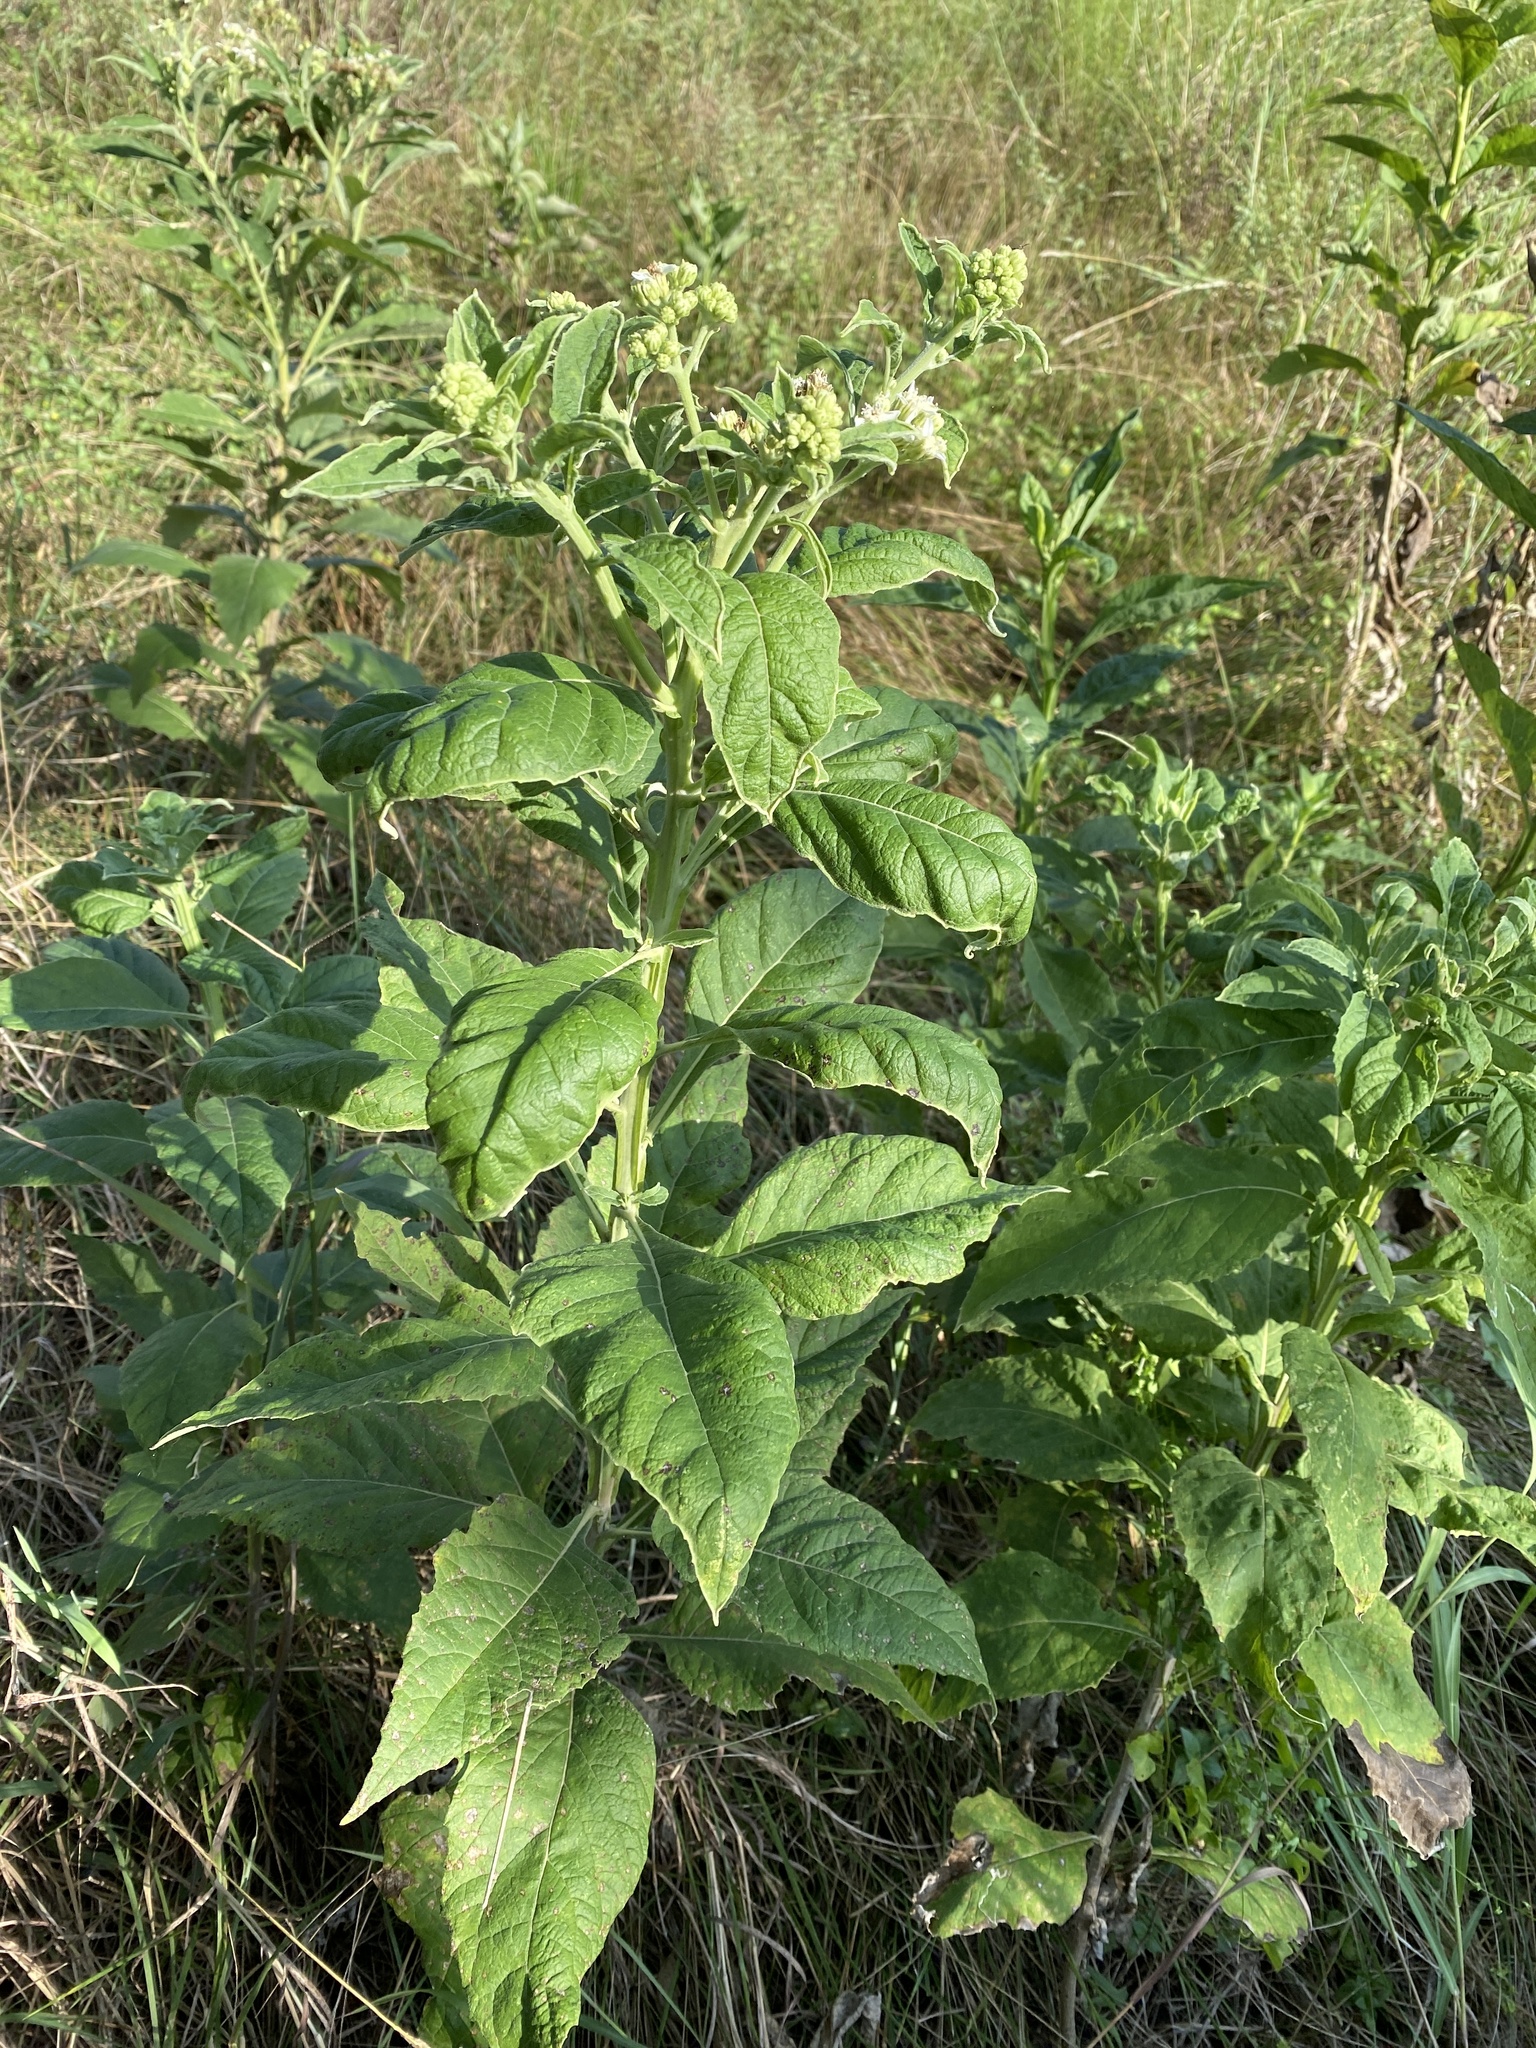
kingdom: Plantae
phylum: Tracheophyta
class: Magnoliopsida
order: Asterales
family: Asteraceae
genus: Verbesina
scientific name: Verbesina virginica
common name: Frostweed
